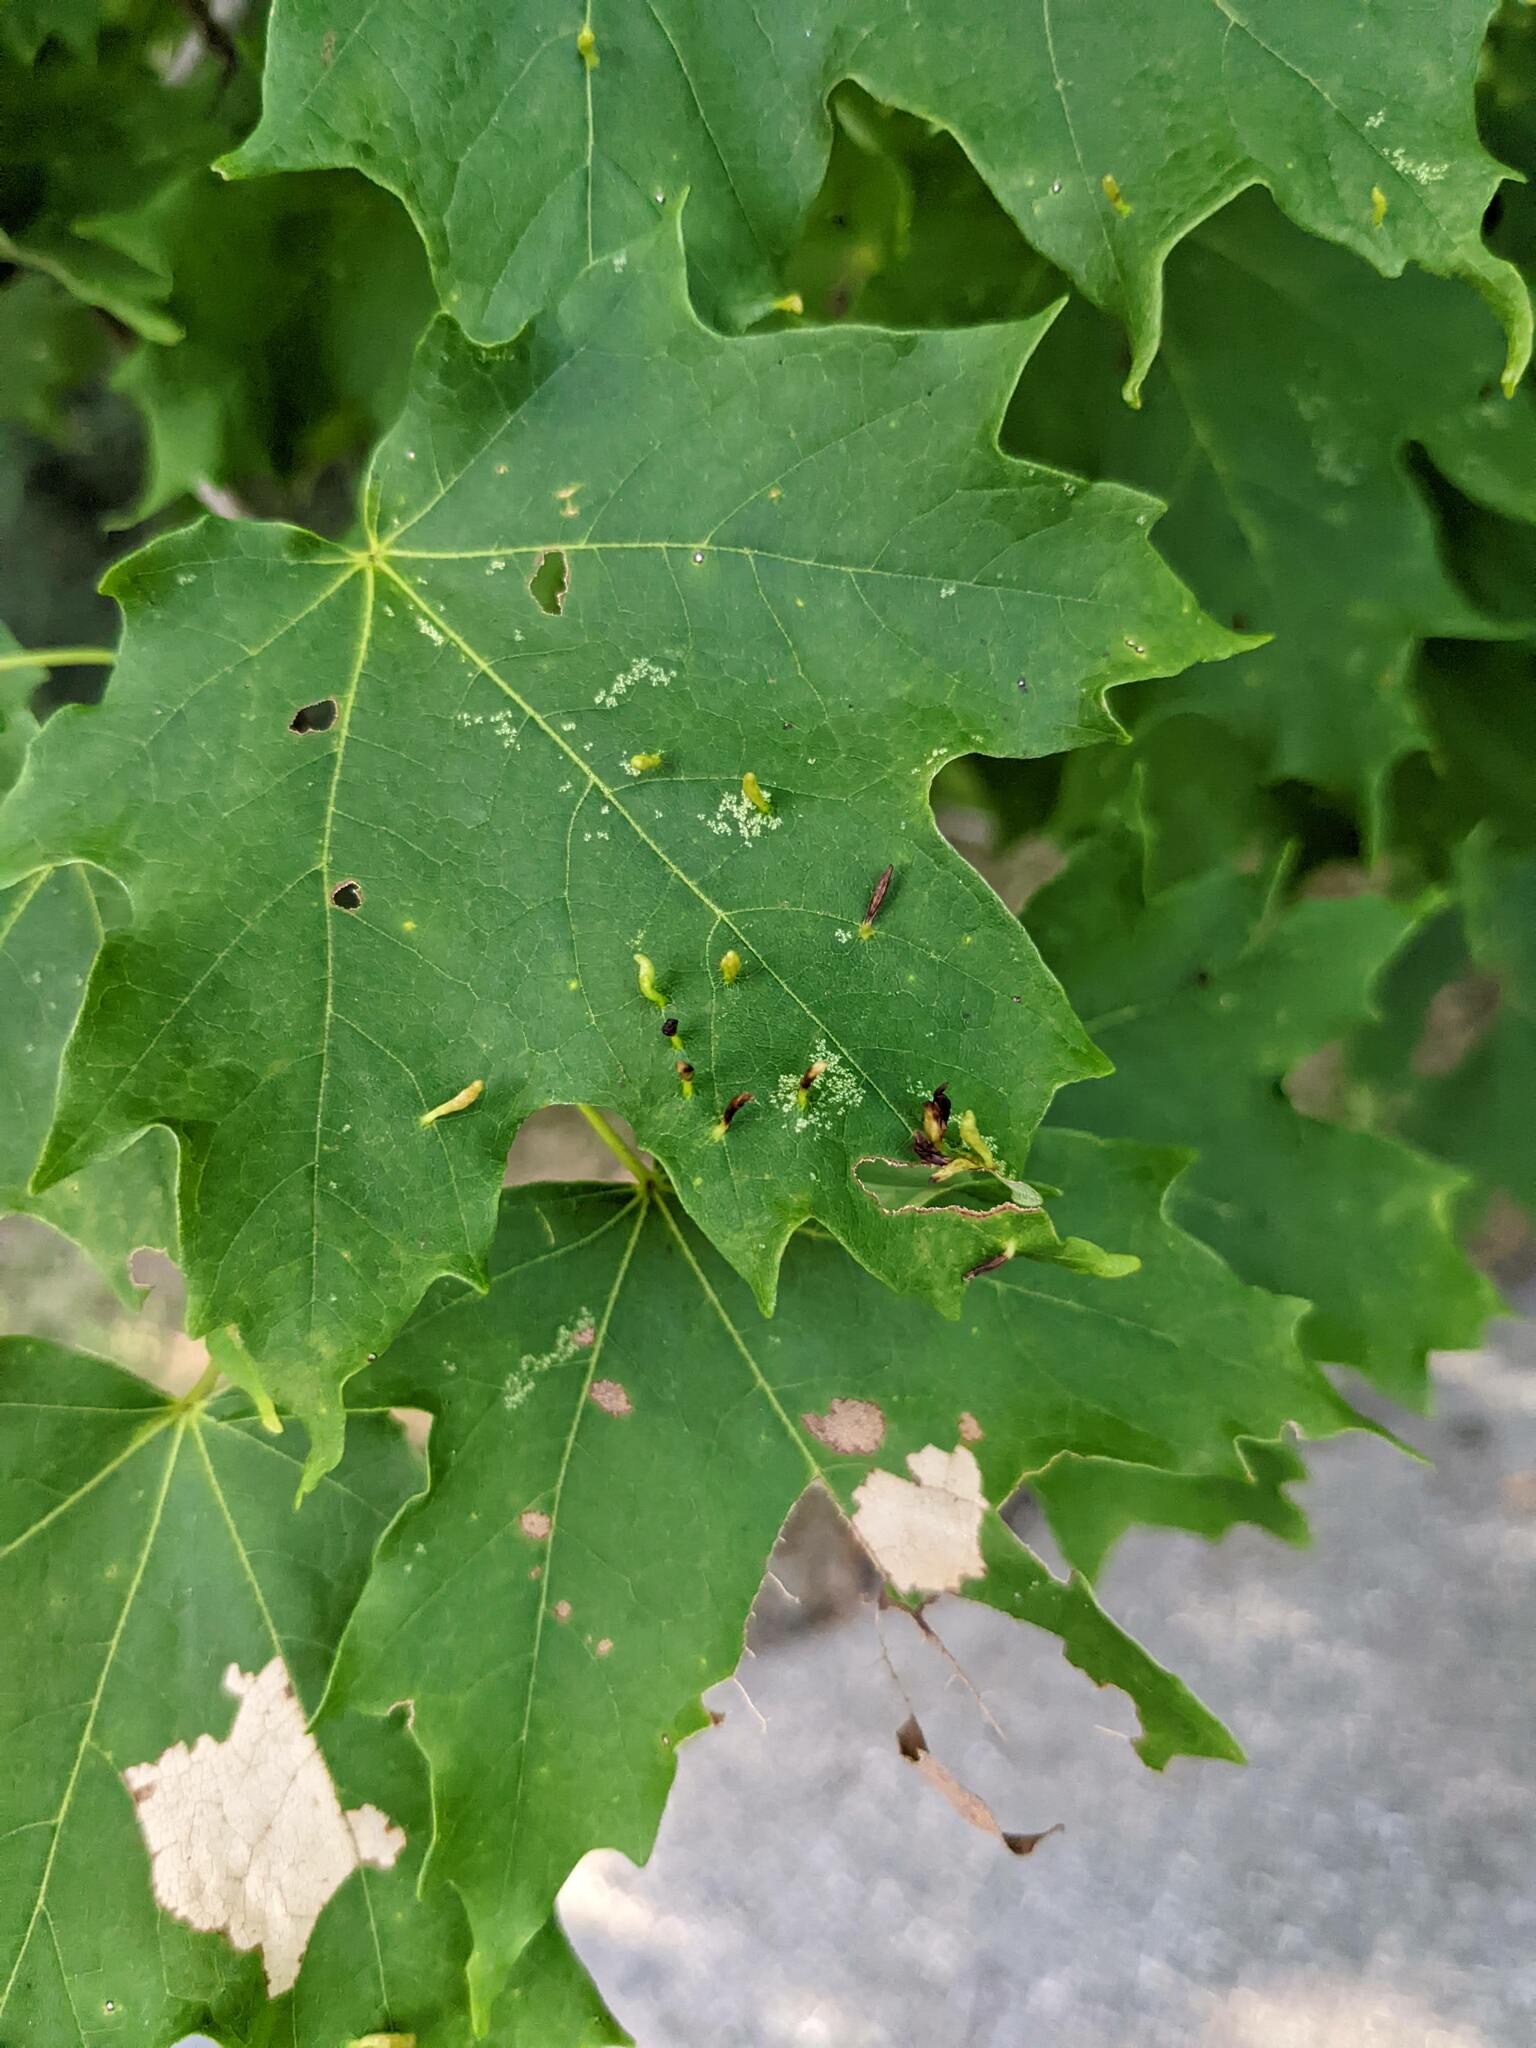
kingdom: Animalia
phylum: Arthropoda
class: Arachnida
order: Trombidiformes
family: Eriophyidae
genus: Vasates
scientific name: Vasates aceriscrumena
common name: Maple spindle gall mite
